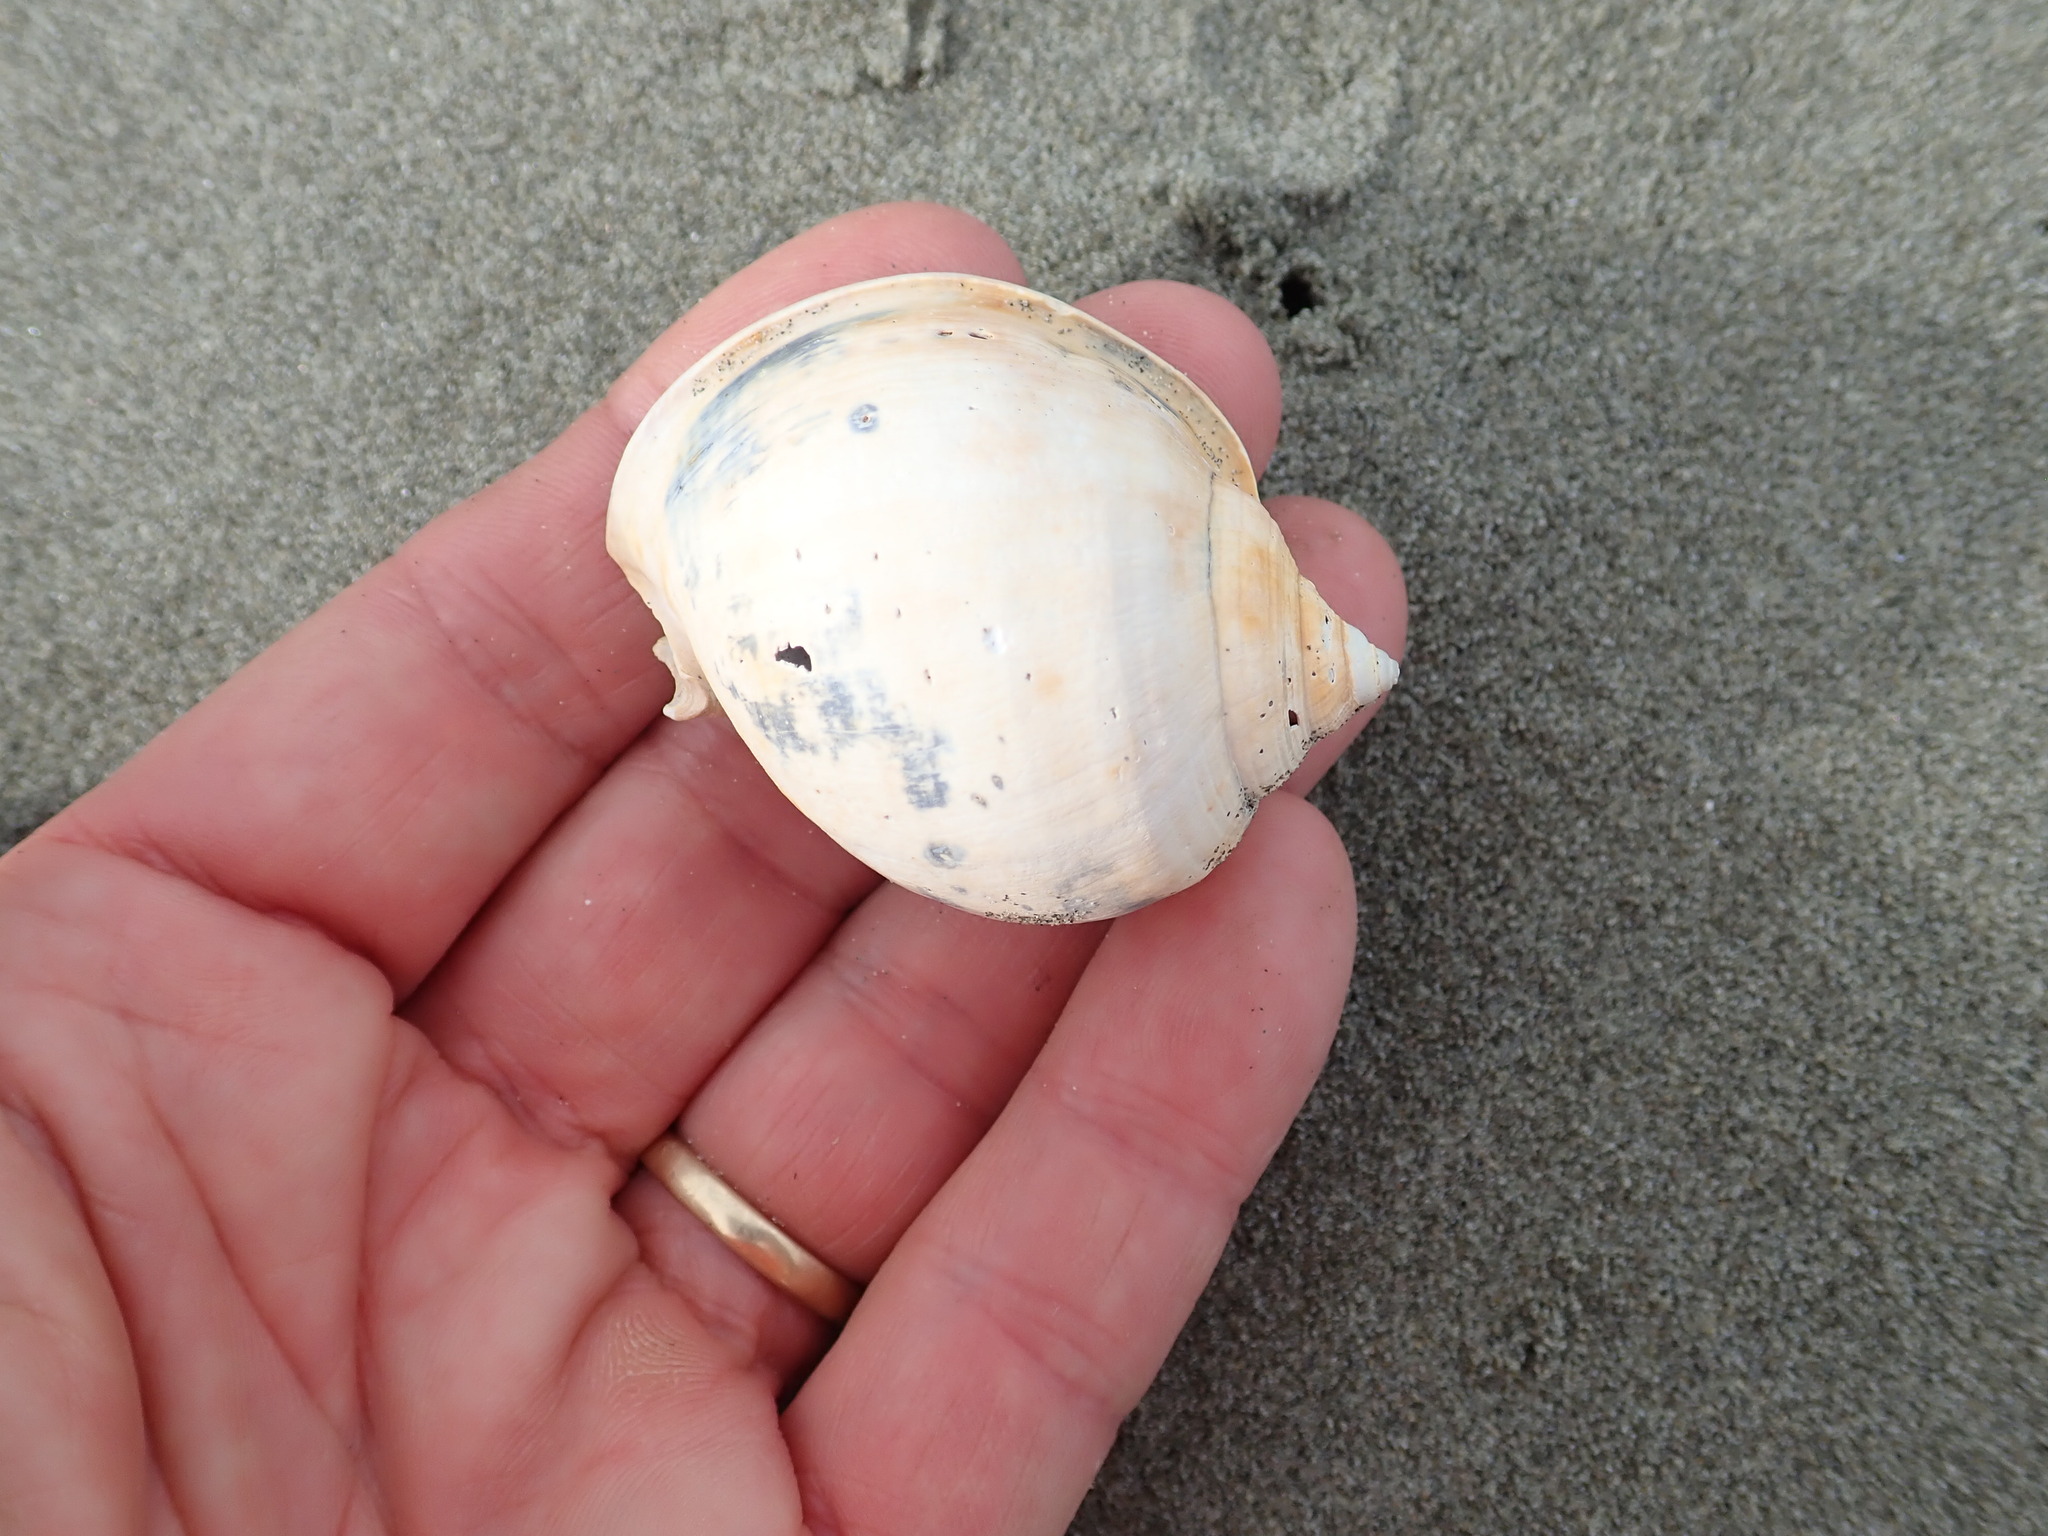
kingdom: Animalia
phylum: Mollusca
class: Gastropoda
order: Littorinimorpha
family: Cassidae
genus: Semicassis
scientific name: Semicassis pyrum
